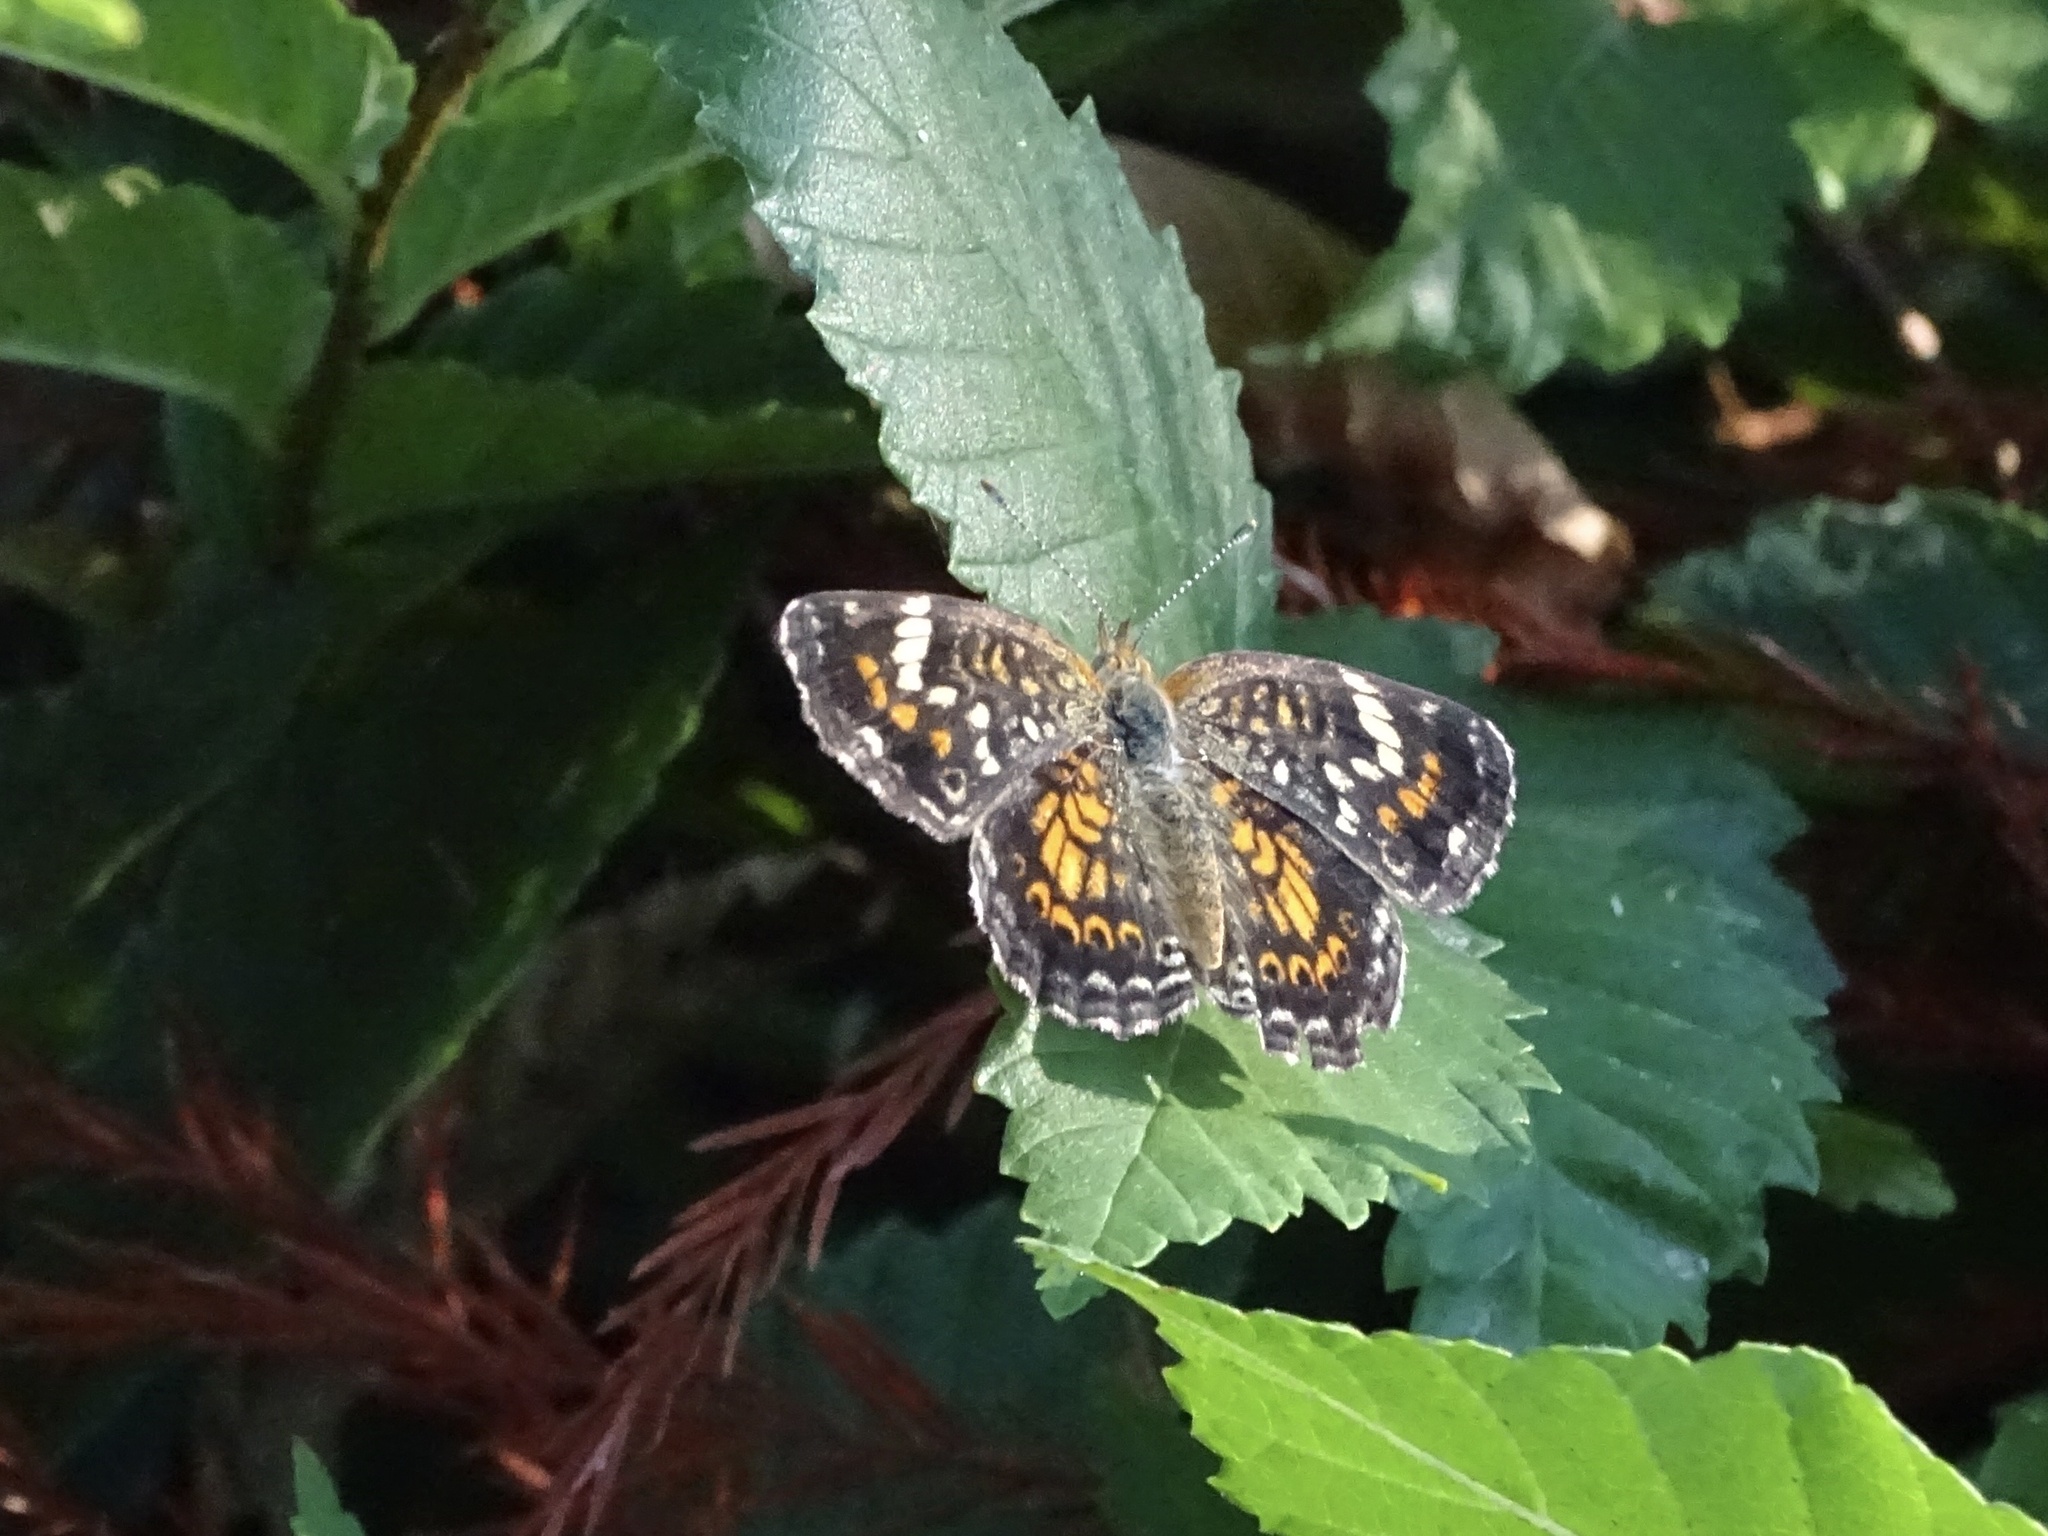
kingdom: Animalia
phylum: Arthropoda
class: Insecta
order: Lepidoptera
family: Nymphalidae
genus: Phyciodes
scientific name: Phyciodes phaon
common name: Phaon crescent
